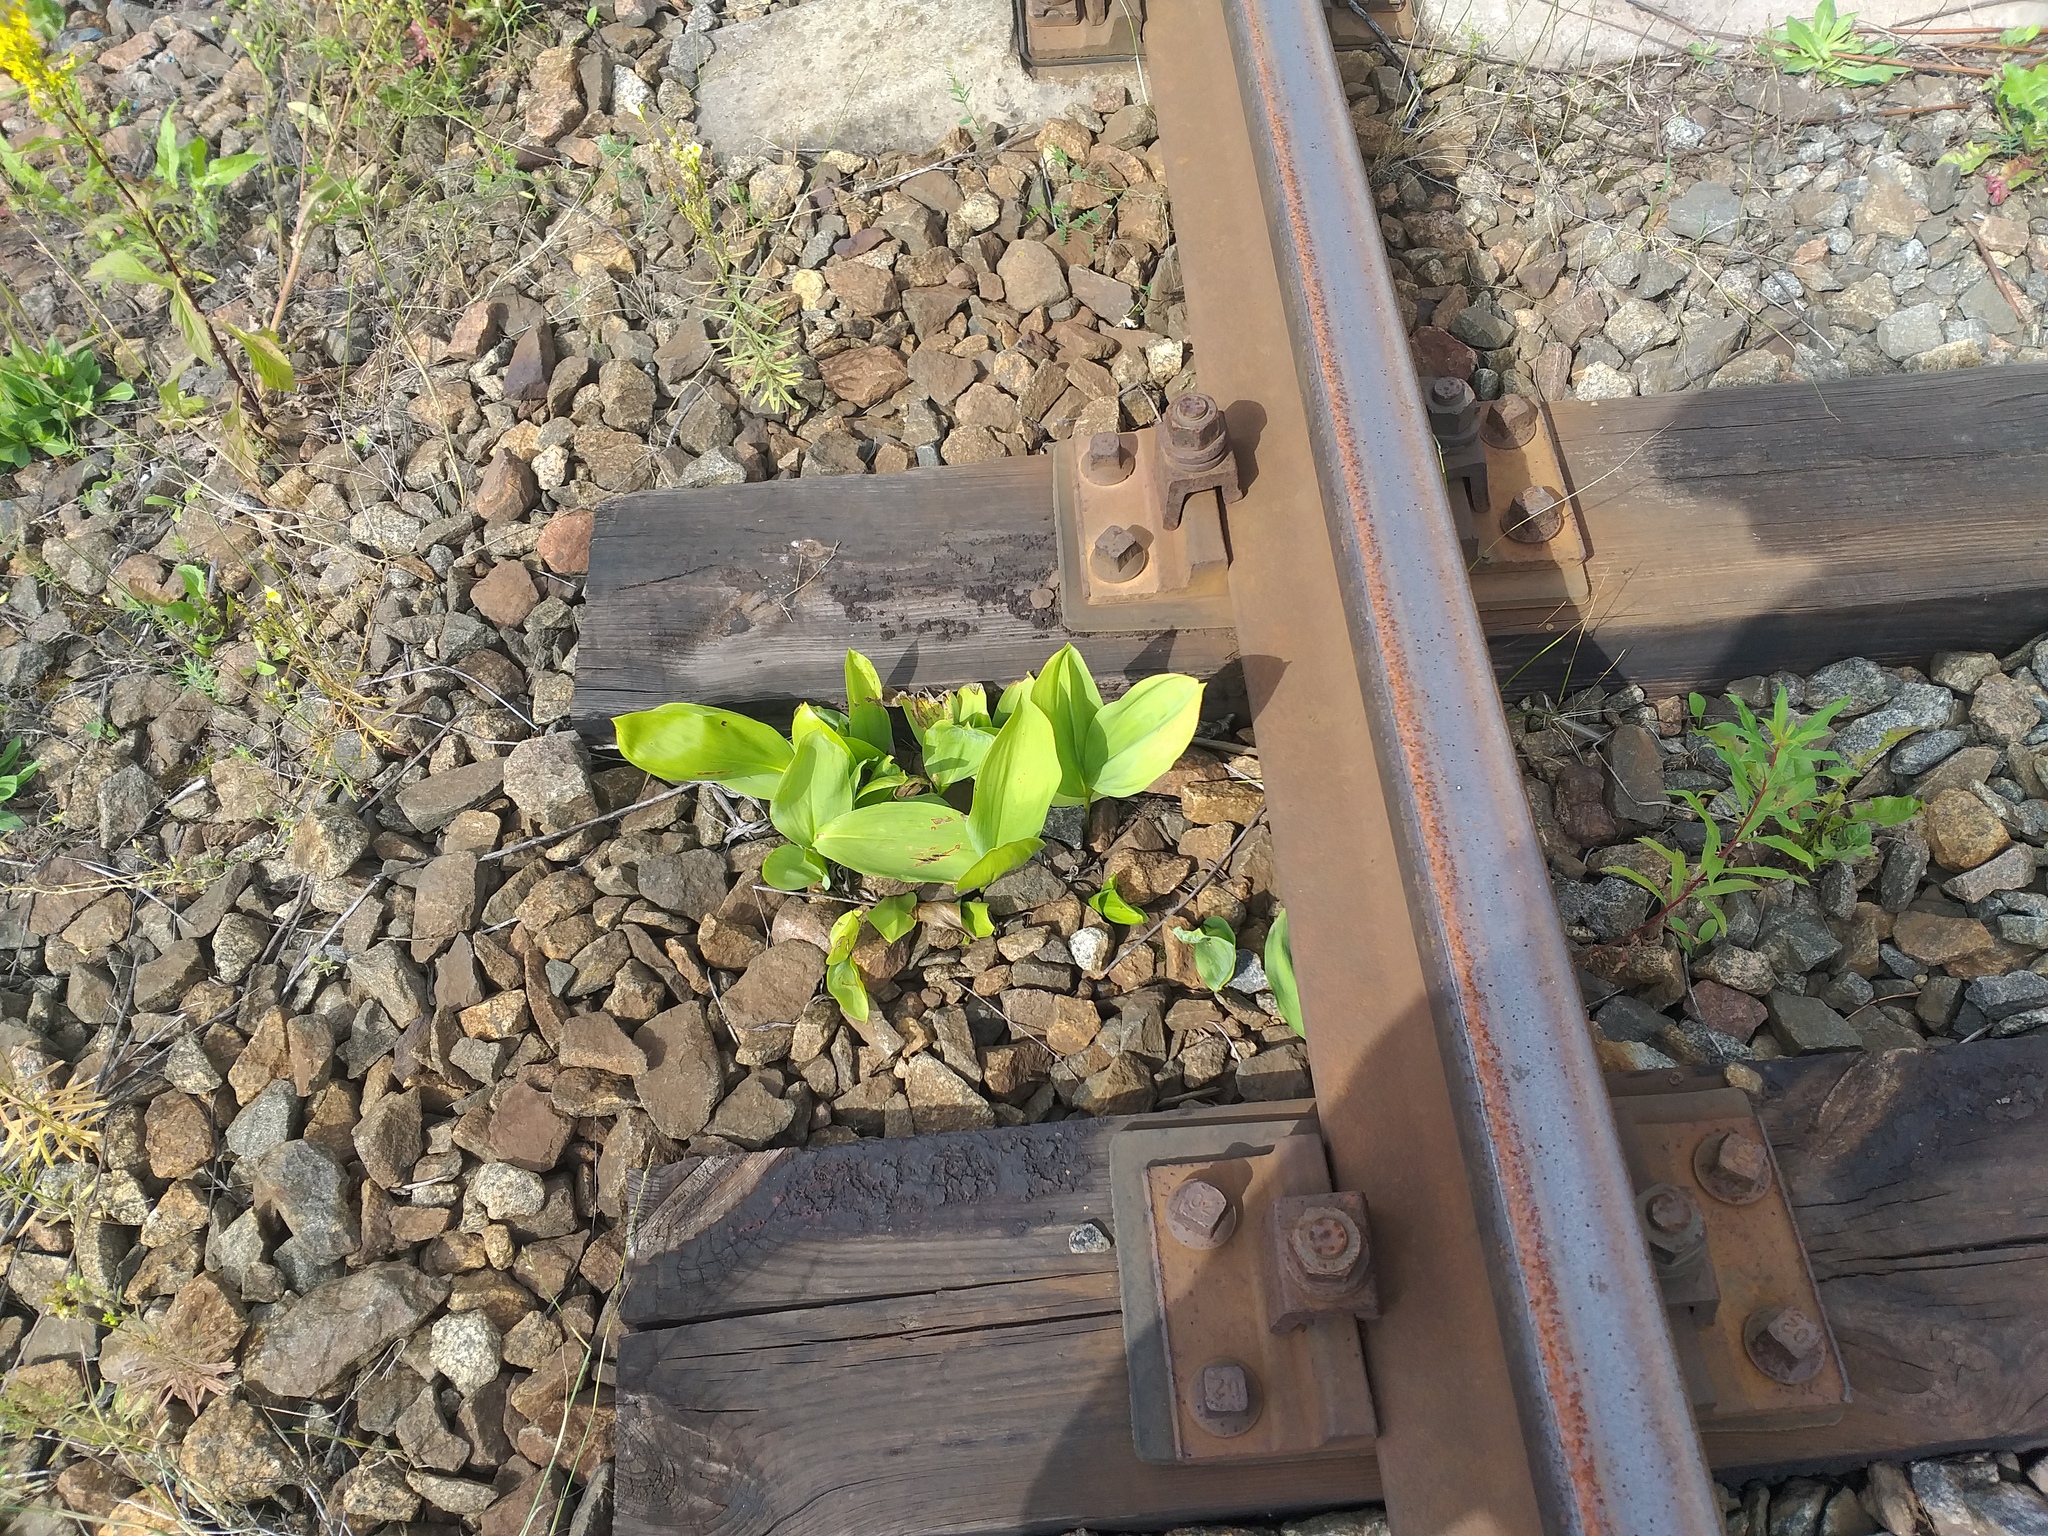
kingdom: Plantae
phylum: Tracheophyta
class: Liliopsida
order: Asparagales
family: Asparagaceae
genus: Convallaria
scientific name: Convallaria majalis
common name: Lily-of-the-valley
